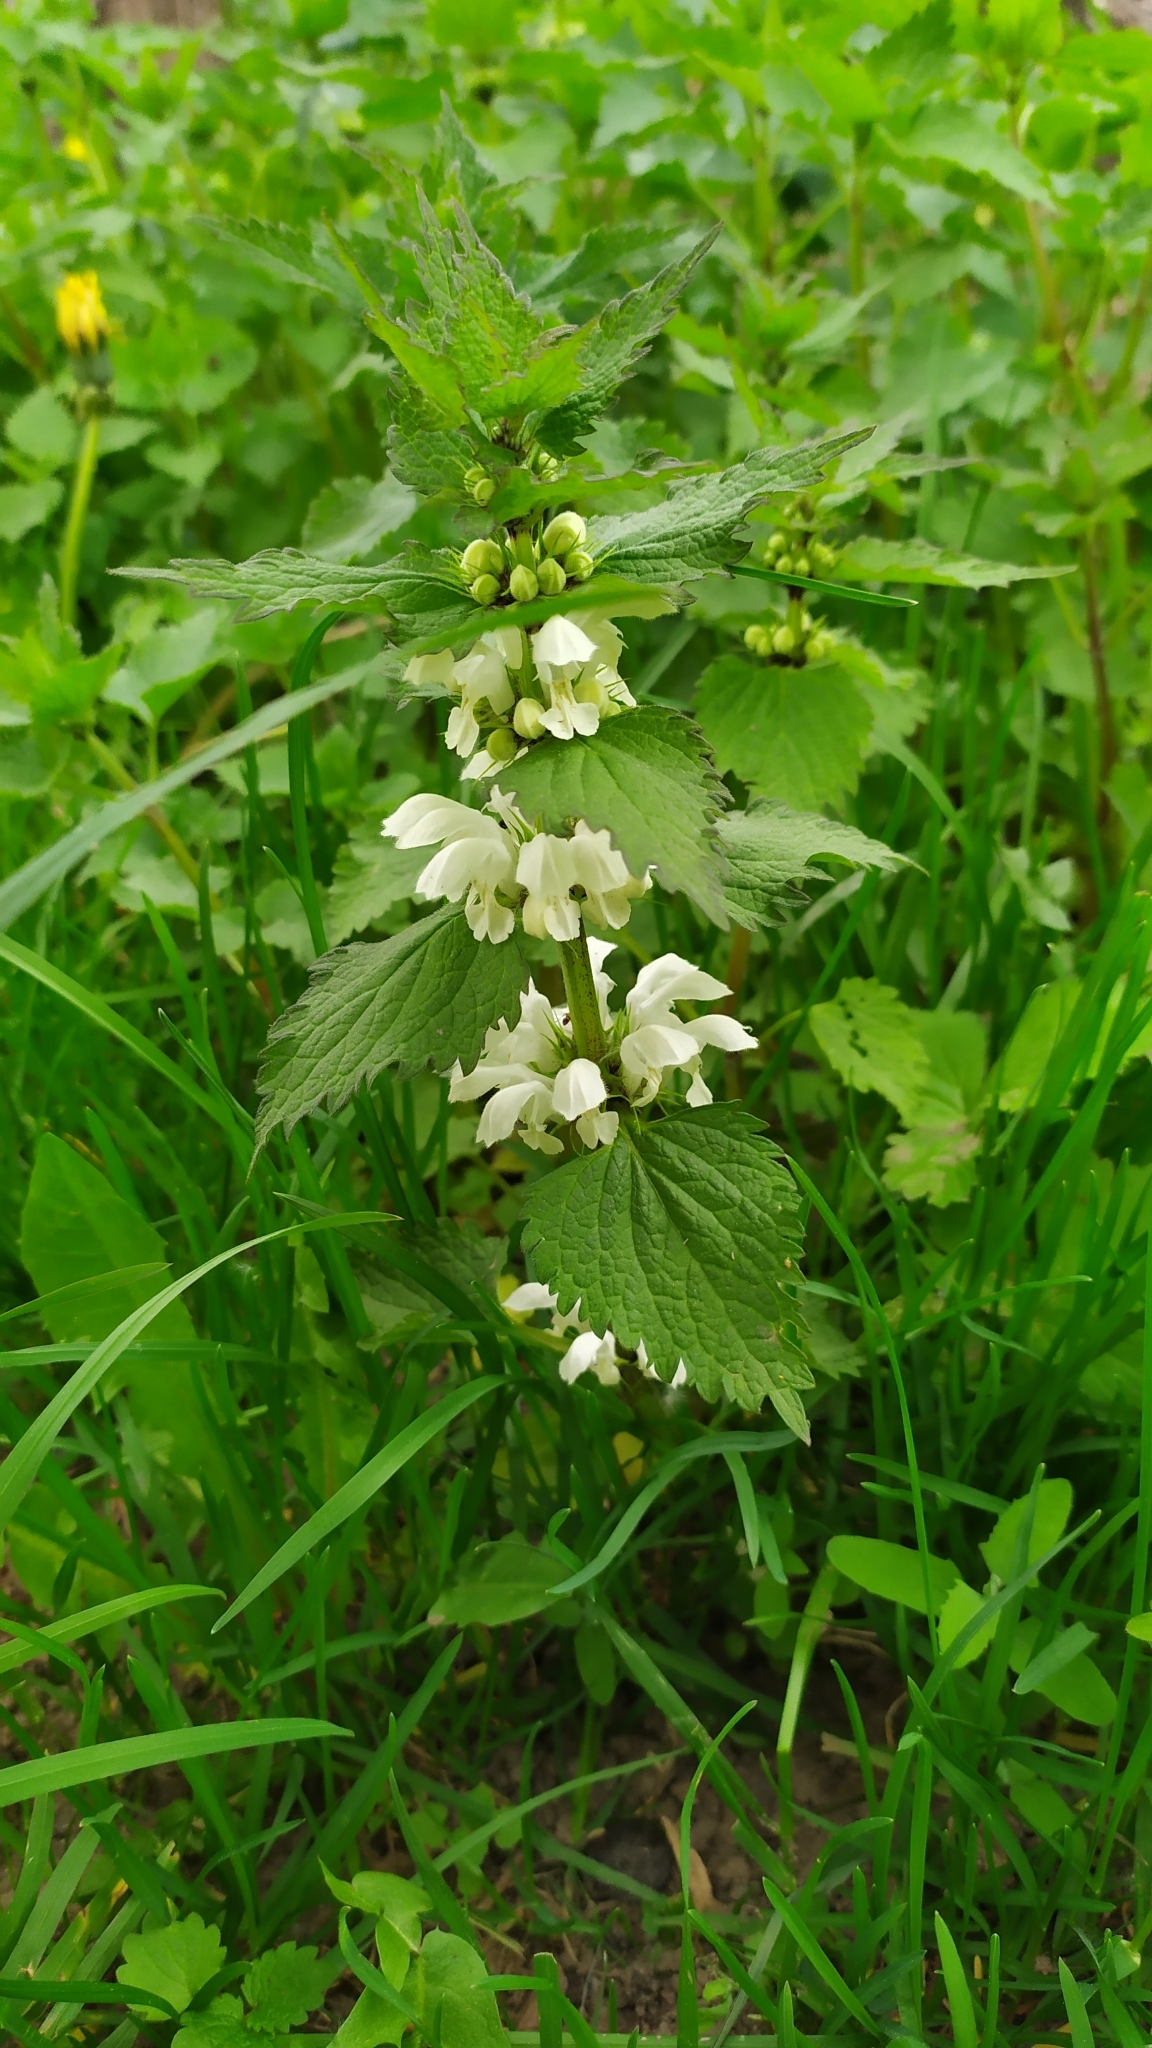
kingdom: Plantae
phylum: Tracheophyta
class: Magnoliopsida
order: Lamiales
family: Lamiaceae
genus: Lamium
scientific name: Lamium album
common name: White dead-nettle
